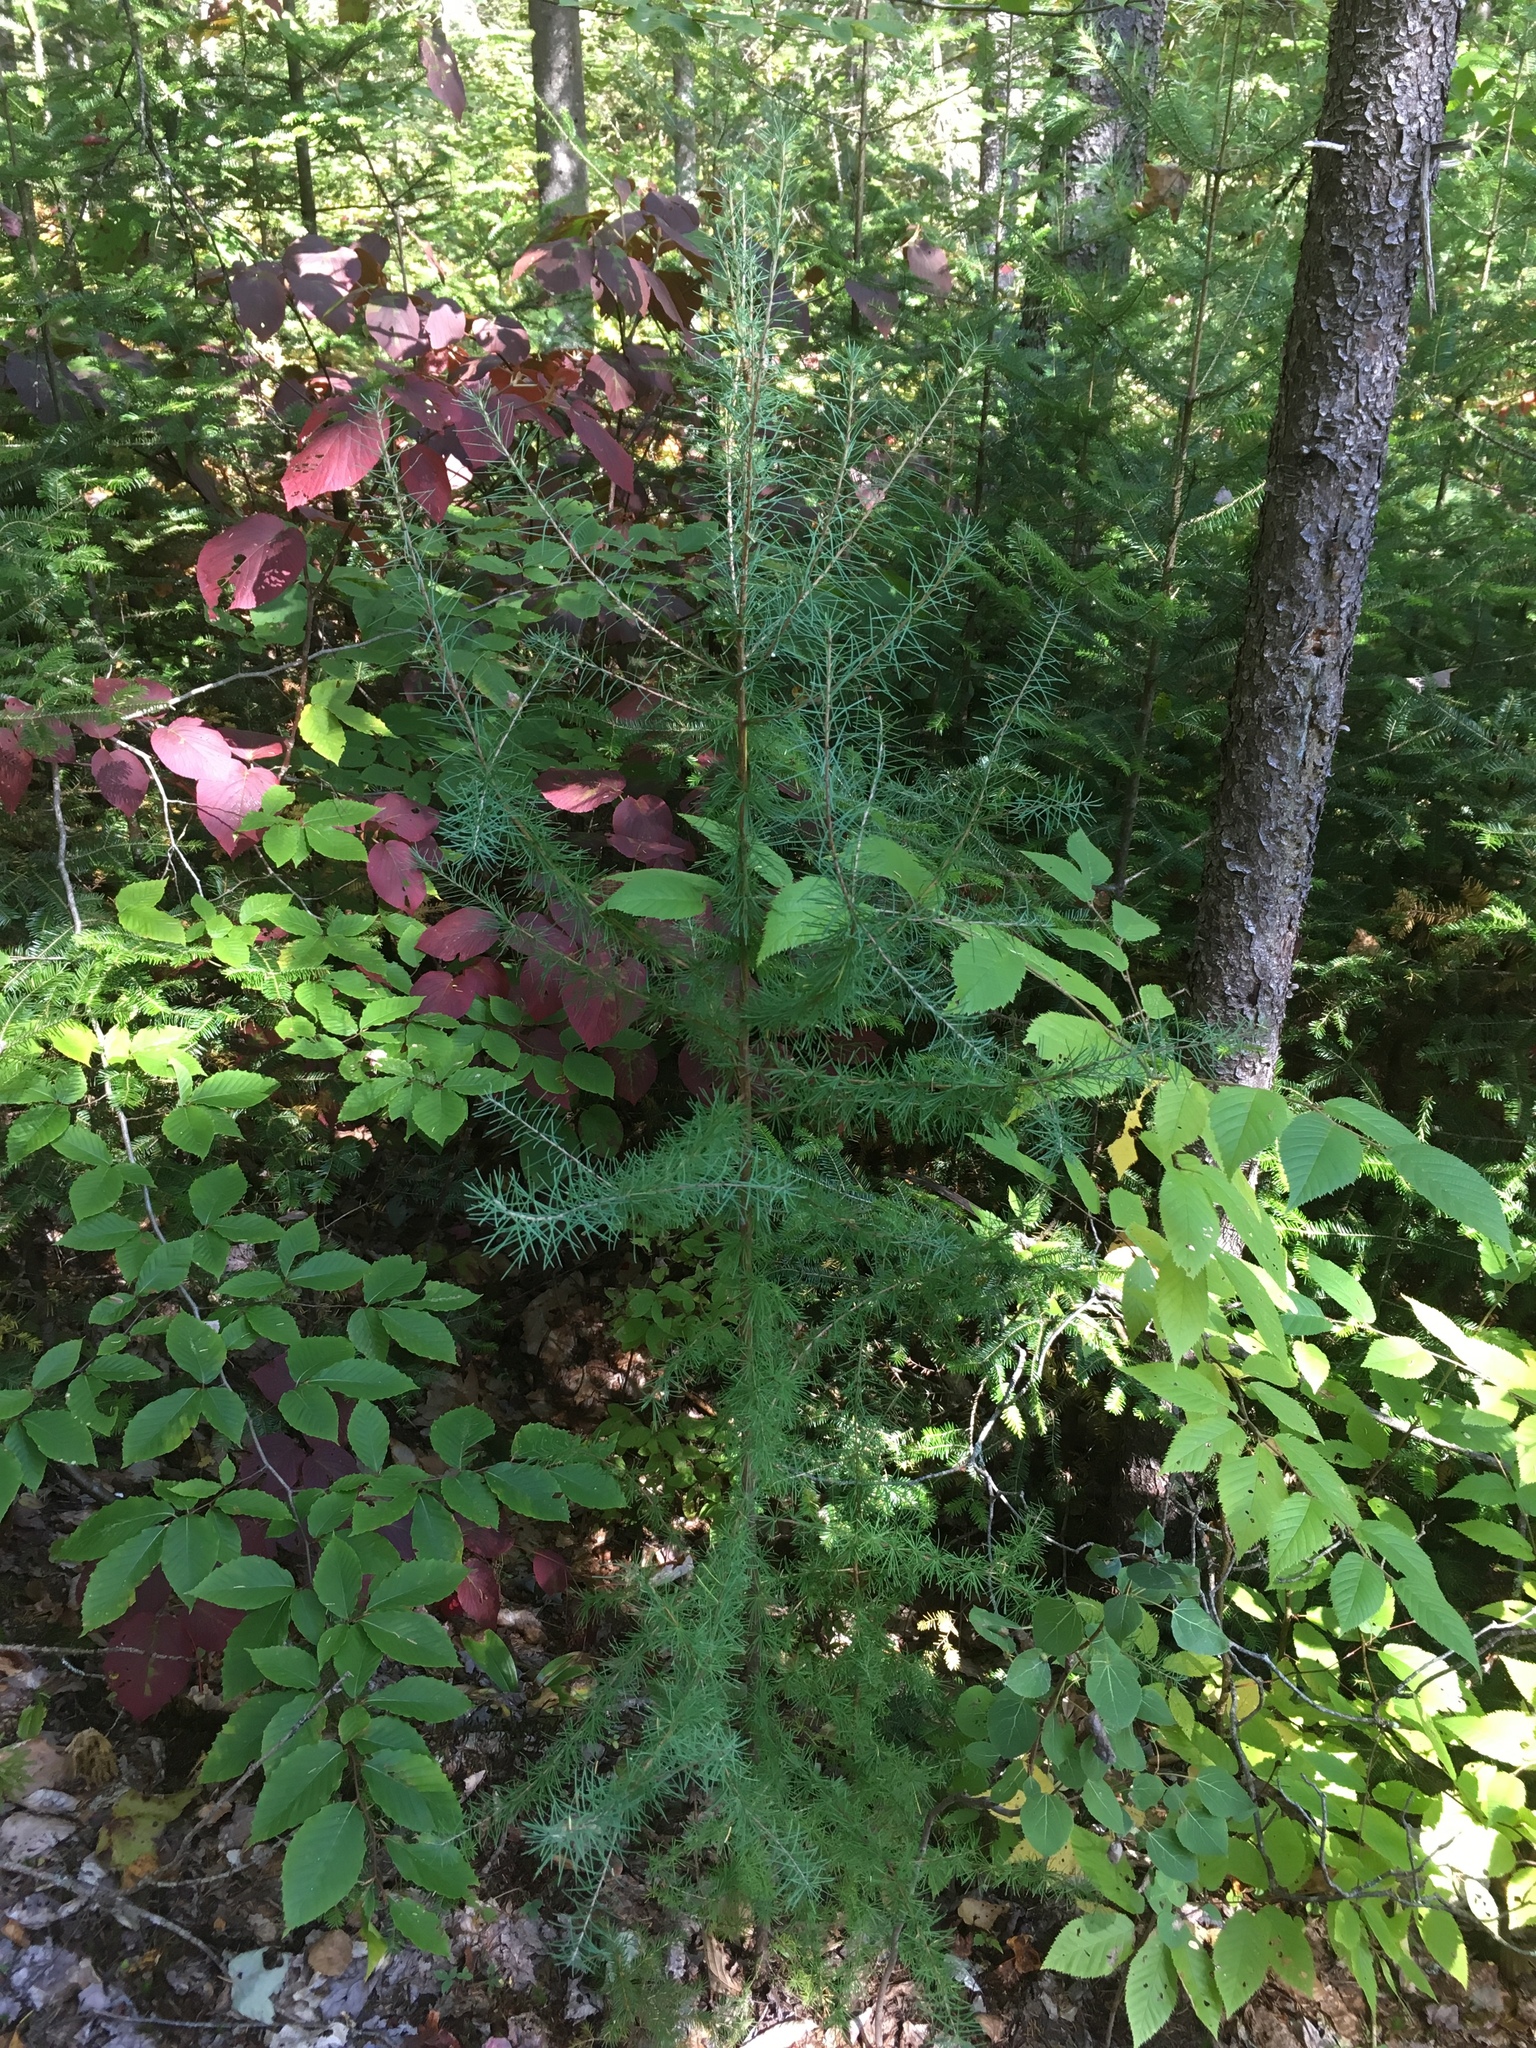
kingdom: Plantae
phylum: Tracheophyta
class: Pinopsida
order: Pinales
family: Pinaceae
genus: Larix
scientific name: Larix laricina
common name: American larch
